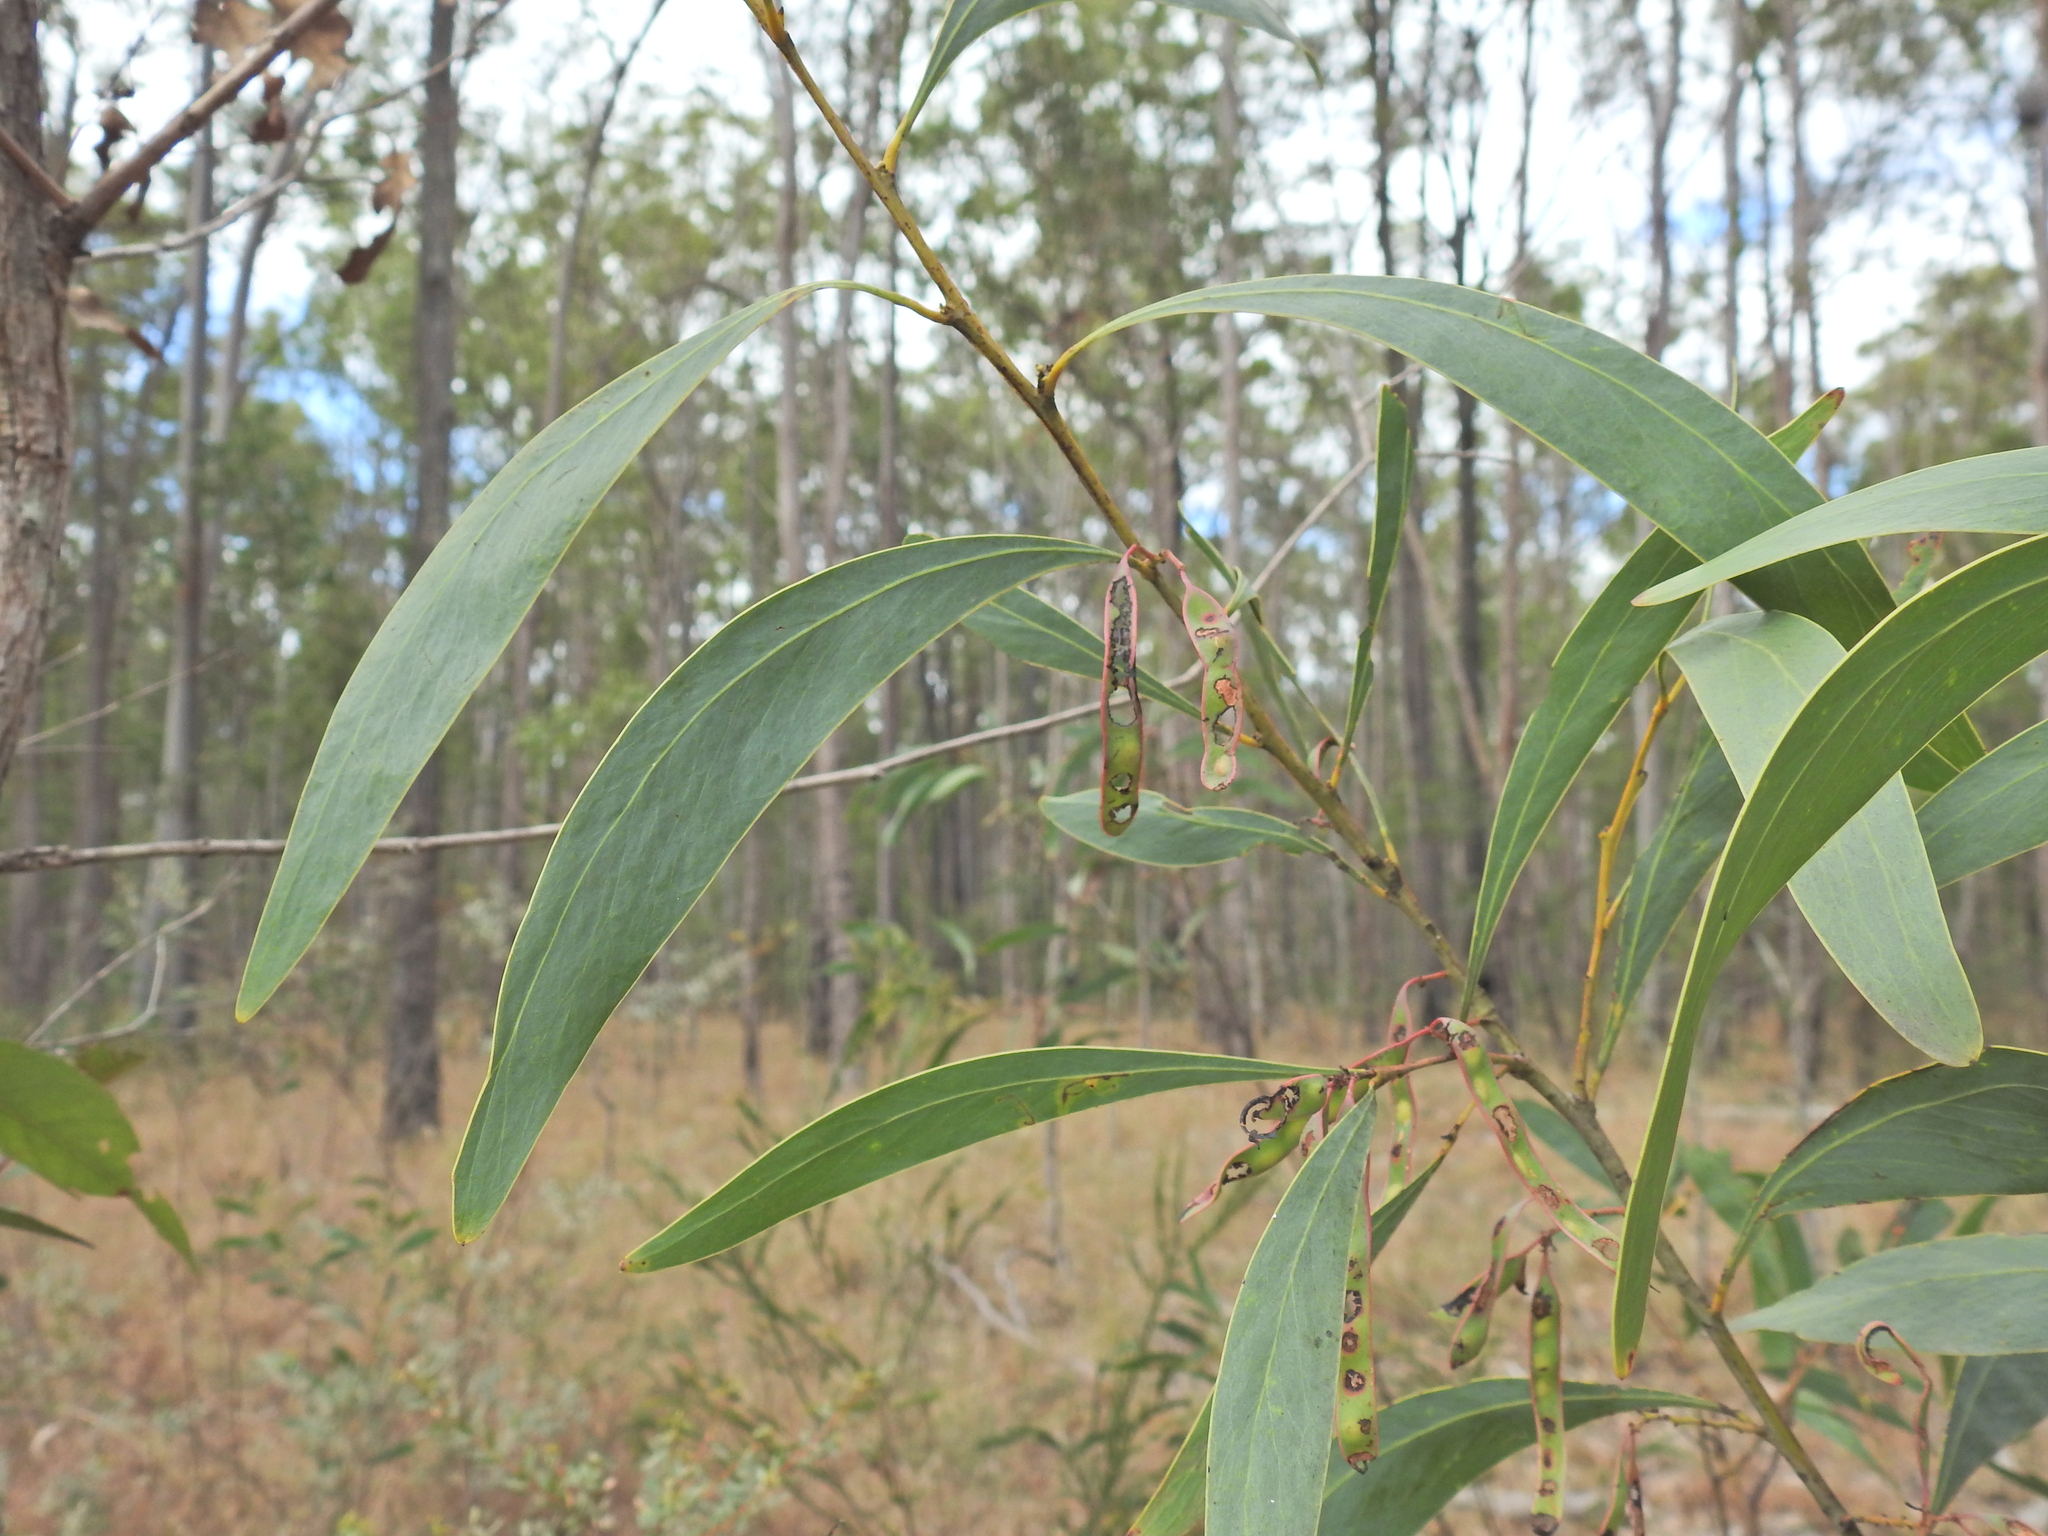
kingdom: Plantae
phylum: Tracheophyta
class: Magnoliopsida
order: Fabales
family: Fabaceae
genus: Acacia
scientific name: Acacia falcata
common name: Burra acacia
